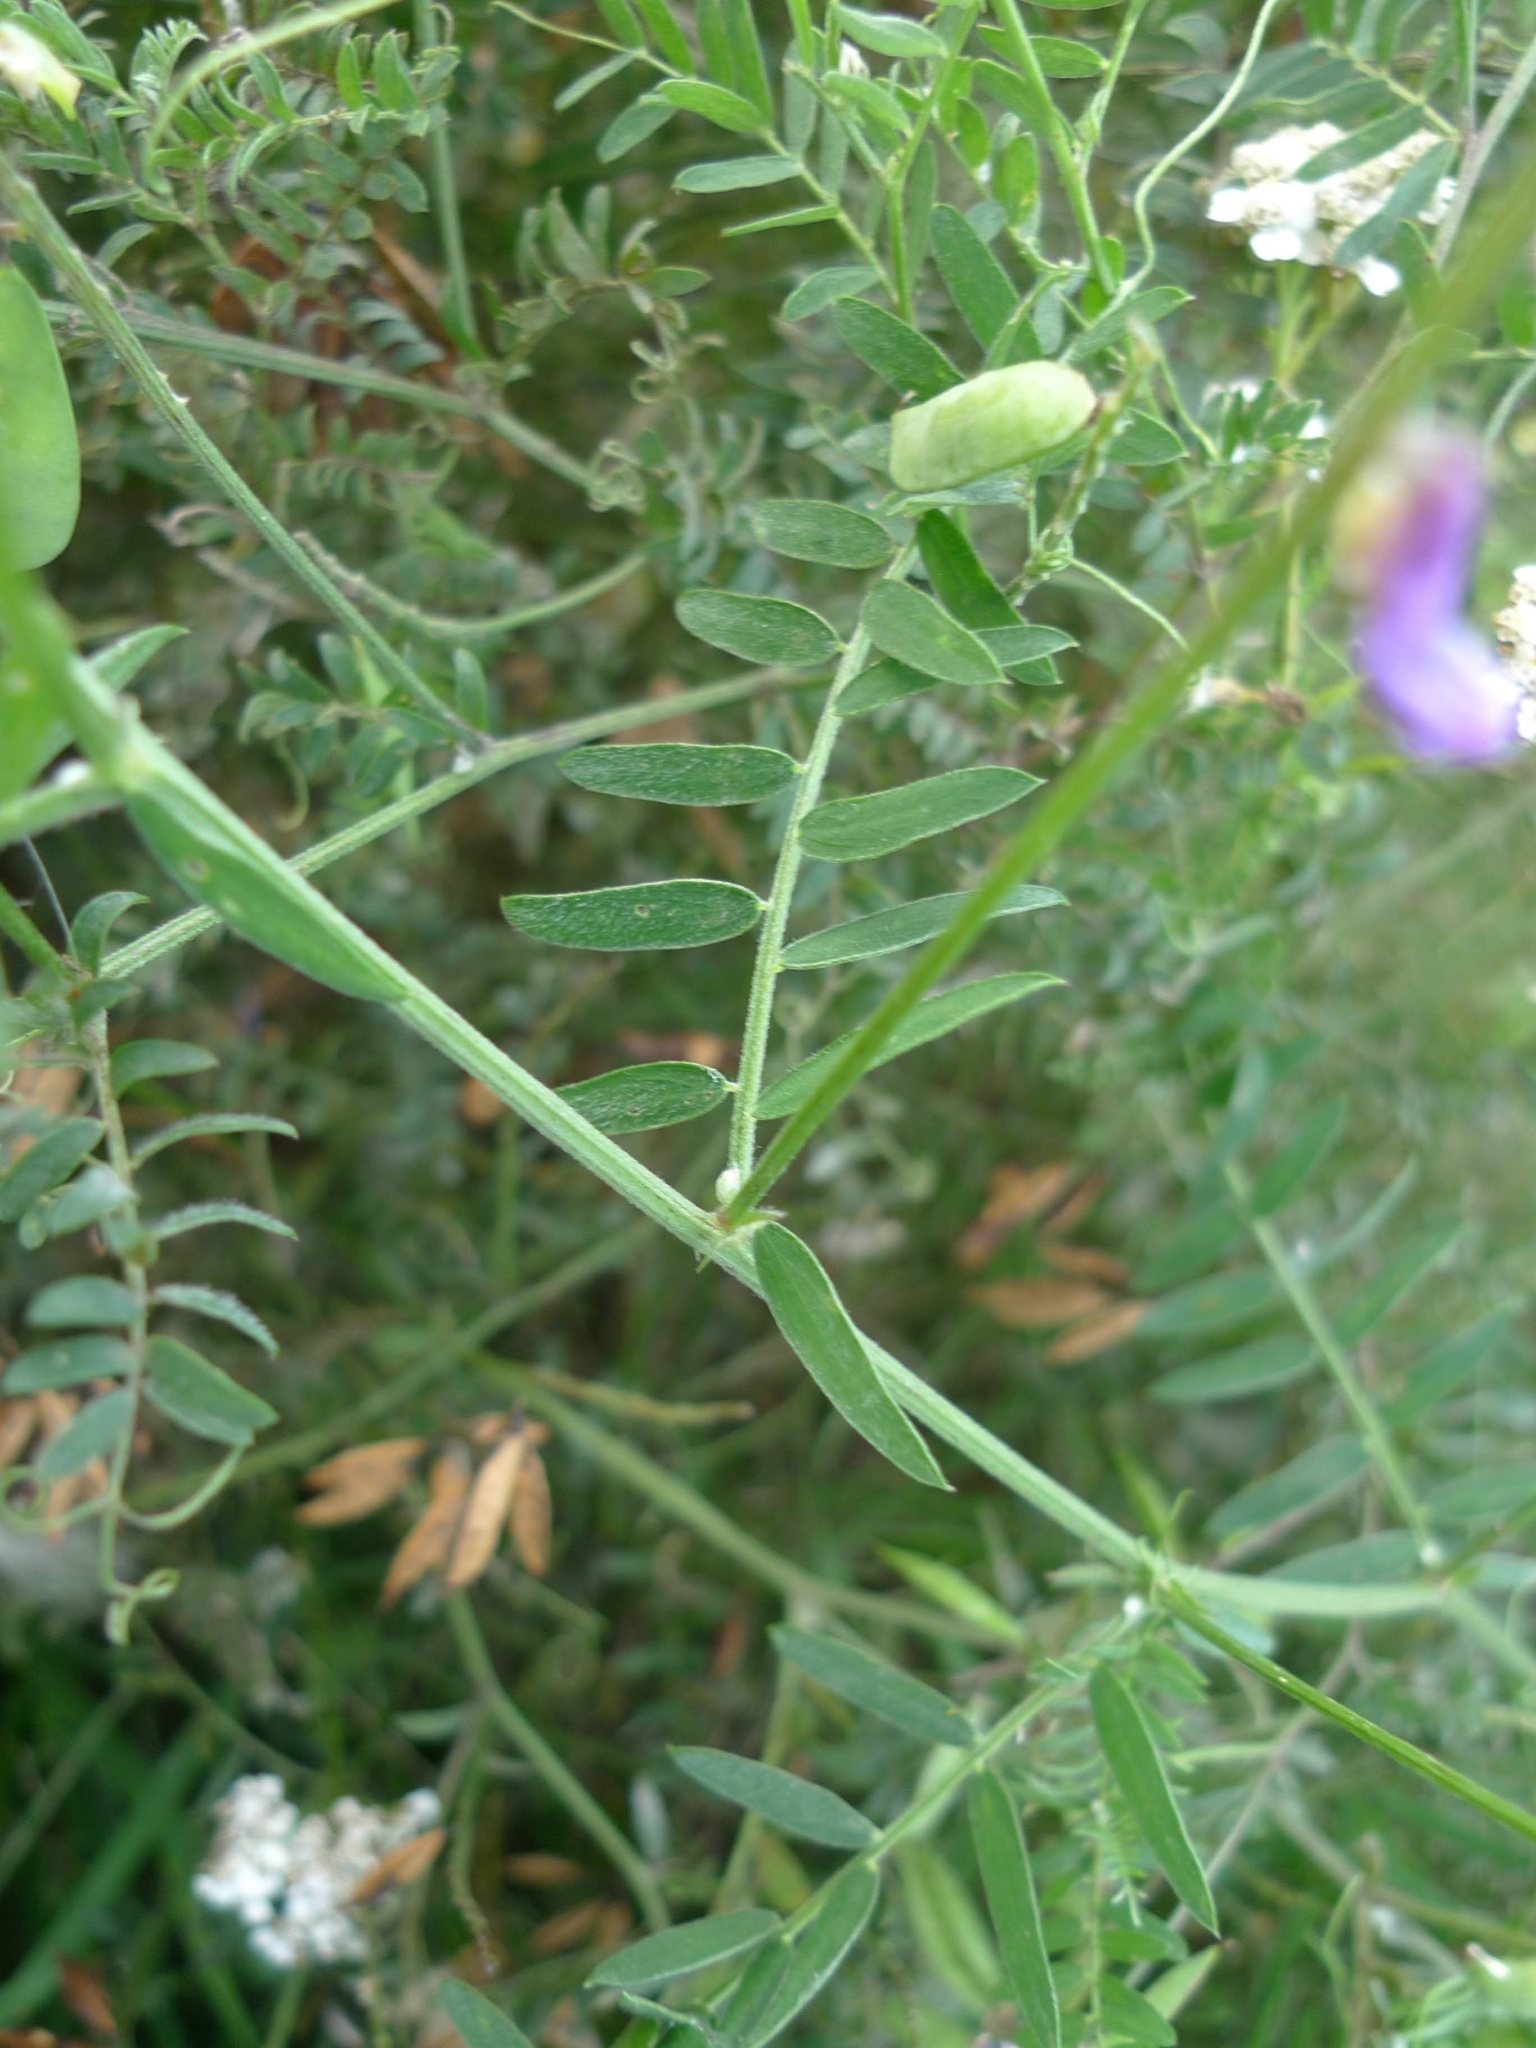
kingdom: Plantae
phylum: Tracheophyta
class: Magnoliopsida
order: Fabales
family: Fabaceae
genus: Vicia
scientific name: Vicia cracca
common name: Bird vetch
